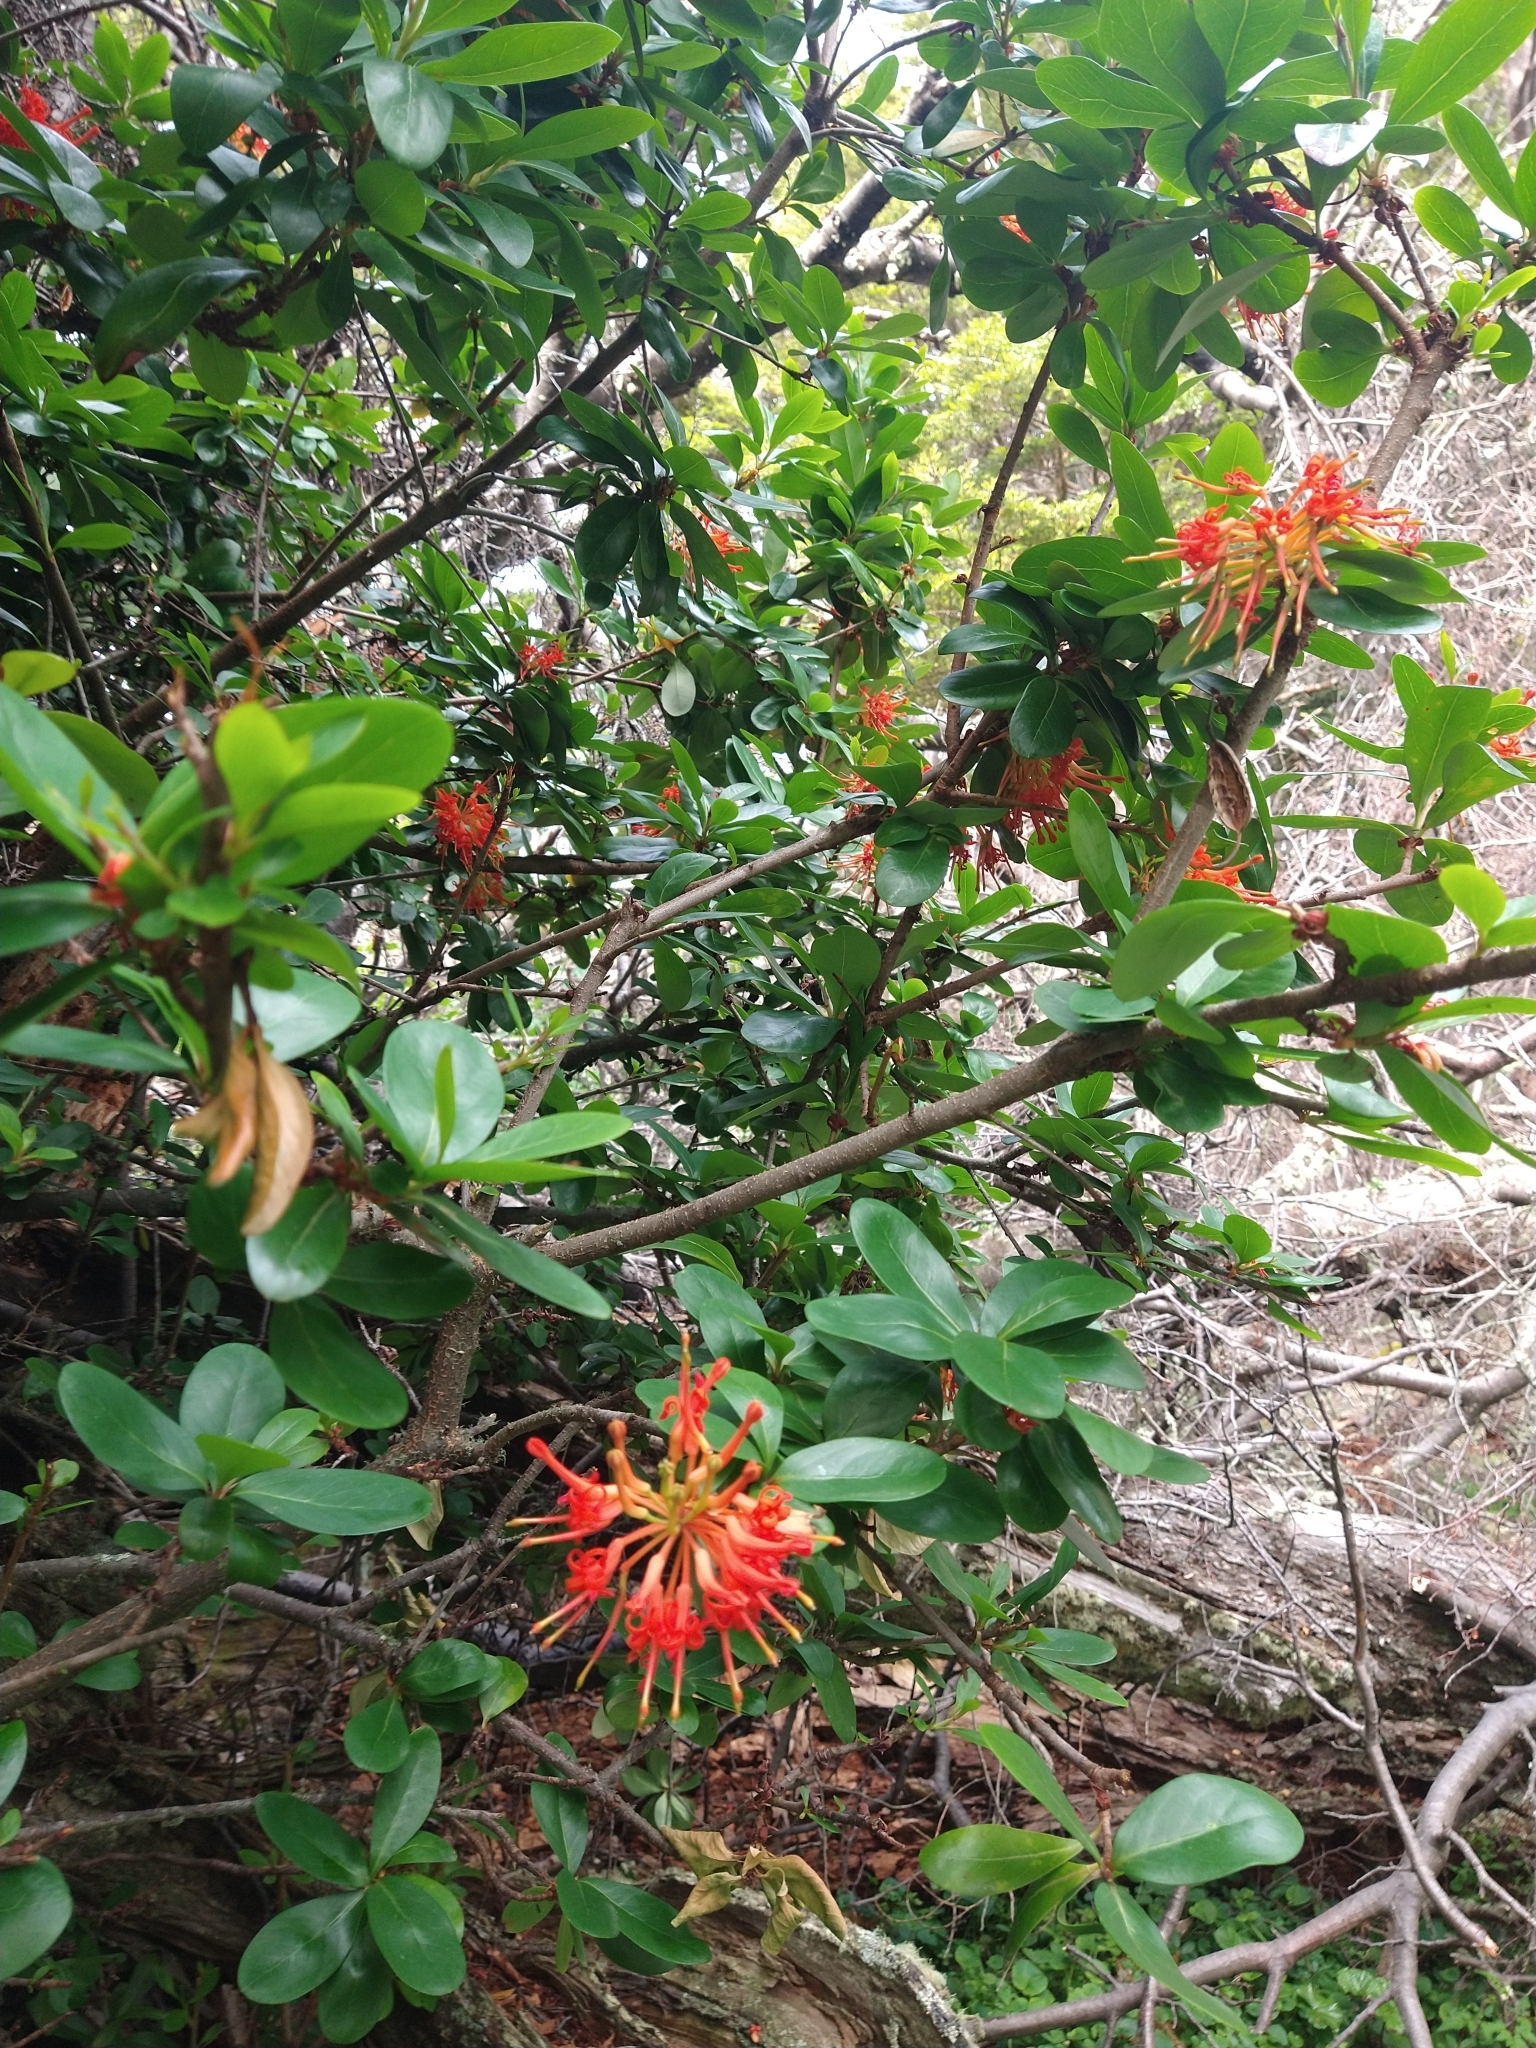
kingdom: Plantae
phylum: Tracheophyta
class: Magnoliopsida
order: Proteales
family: Proteaceae
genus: Embothrium
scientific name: Embothrium coccineum
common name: Chilean firebush
